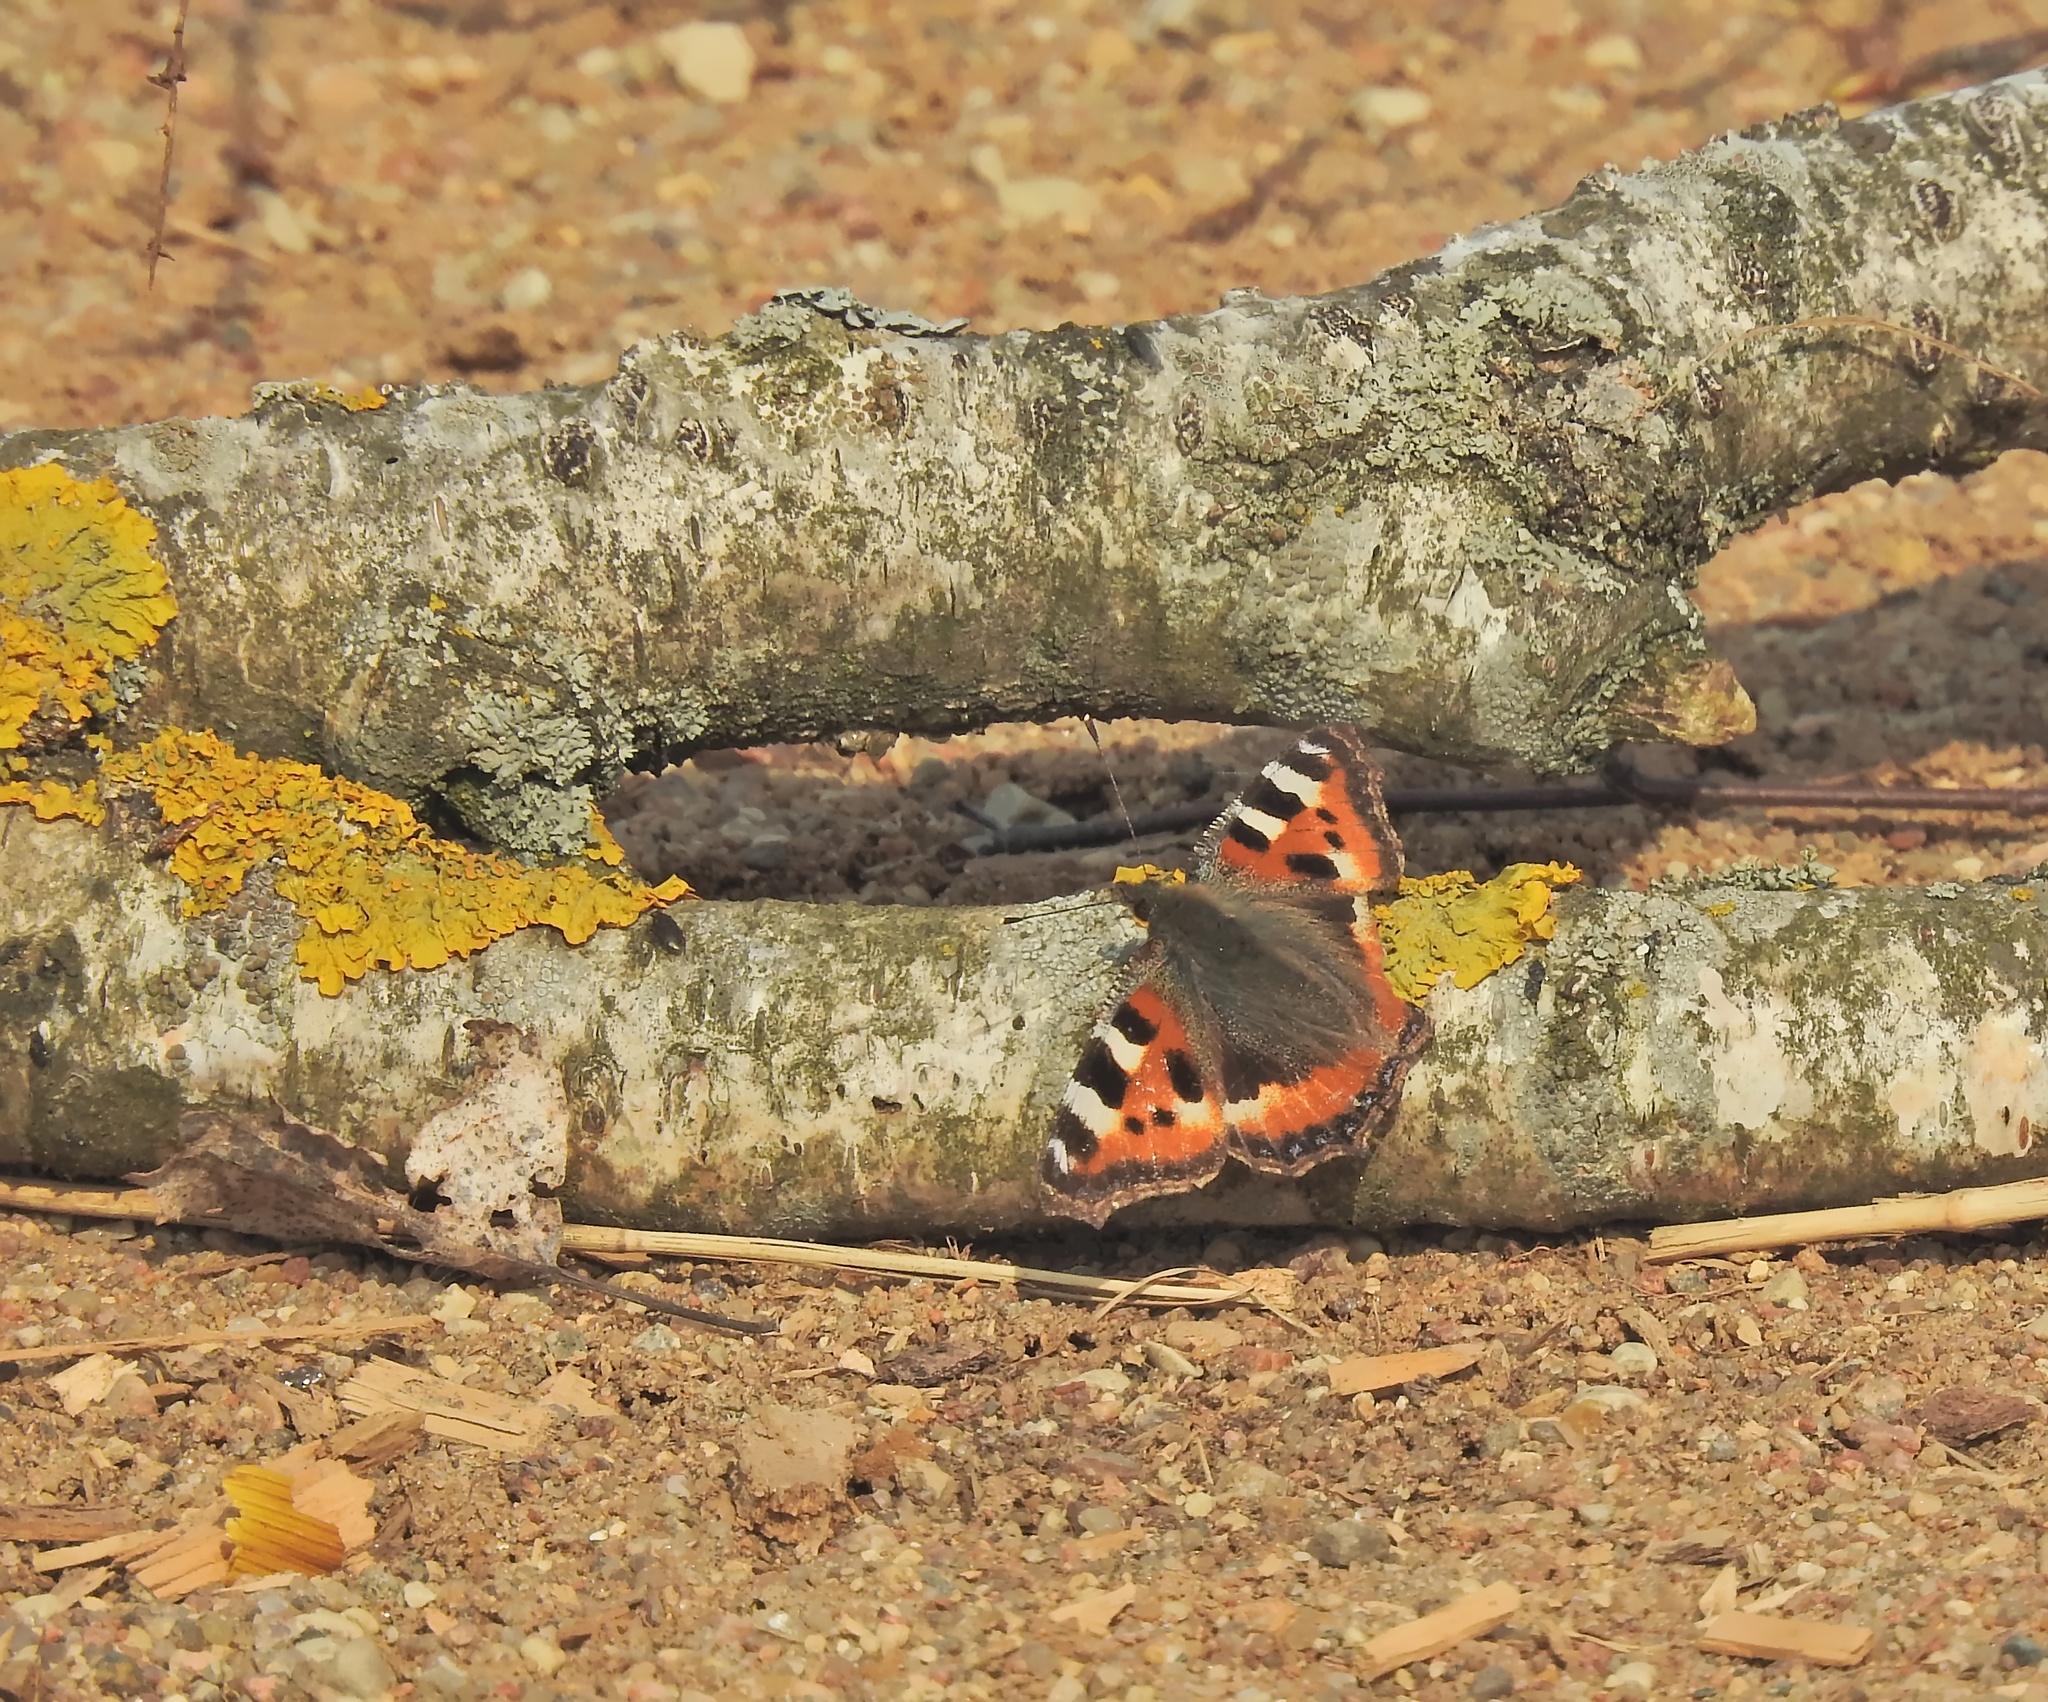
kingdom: Animalia
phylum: Arthropoda
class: Insecta
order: Lepidoptera
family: Nymphalidae
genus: Aglais
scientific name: Aglais urticae
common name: Small tortoiseshell
